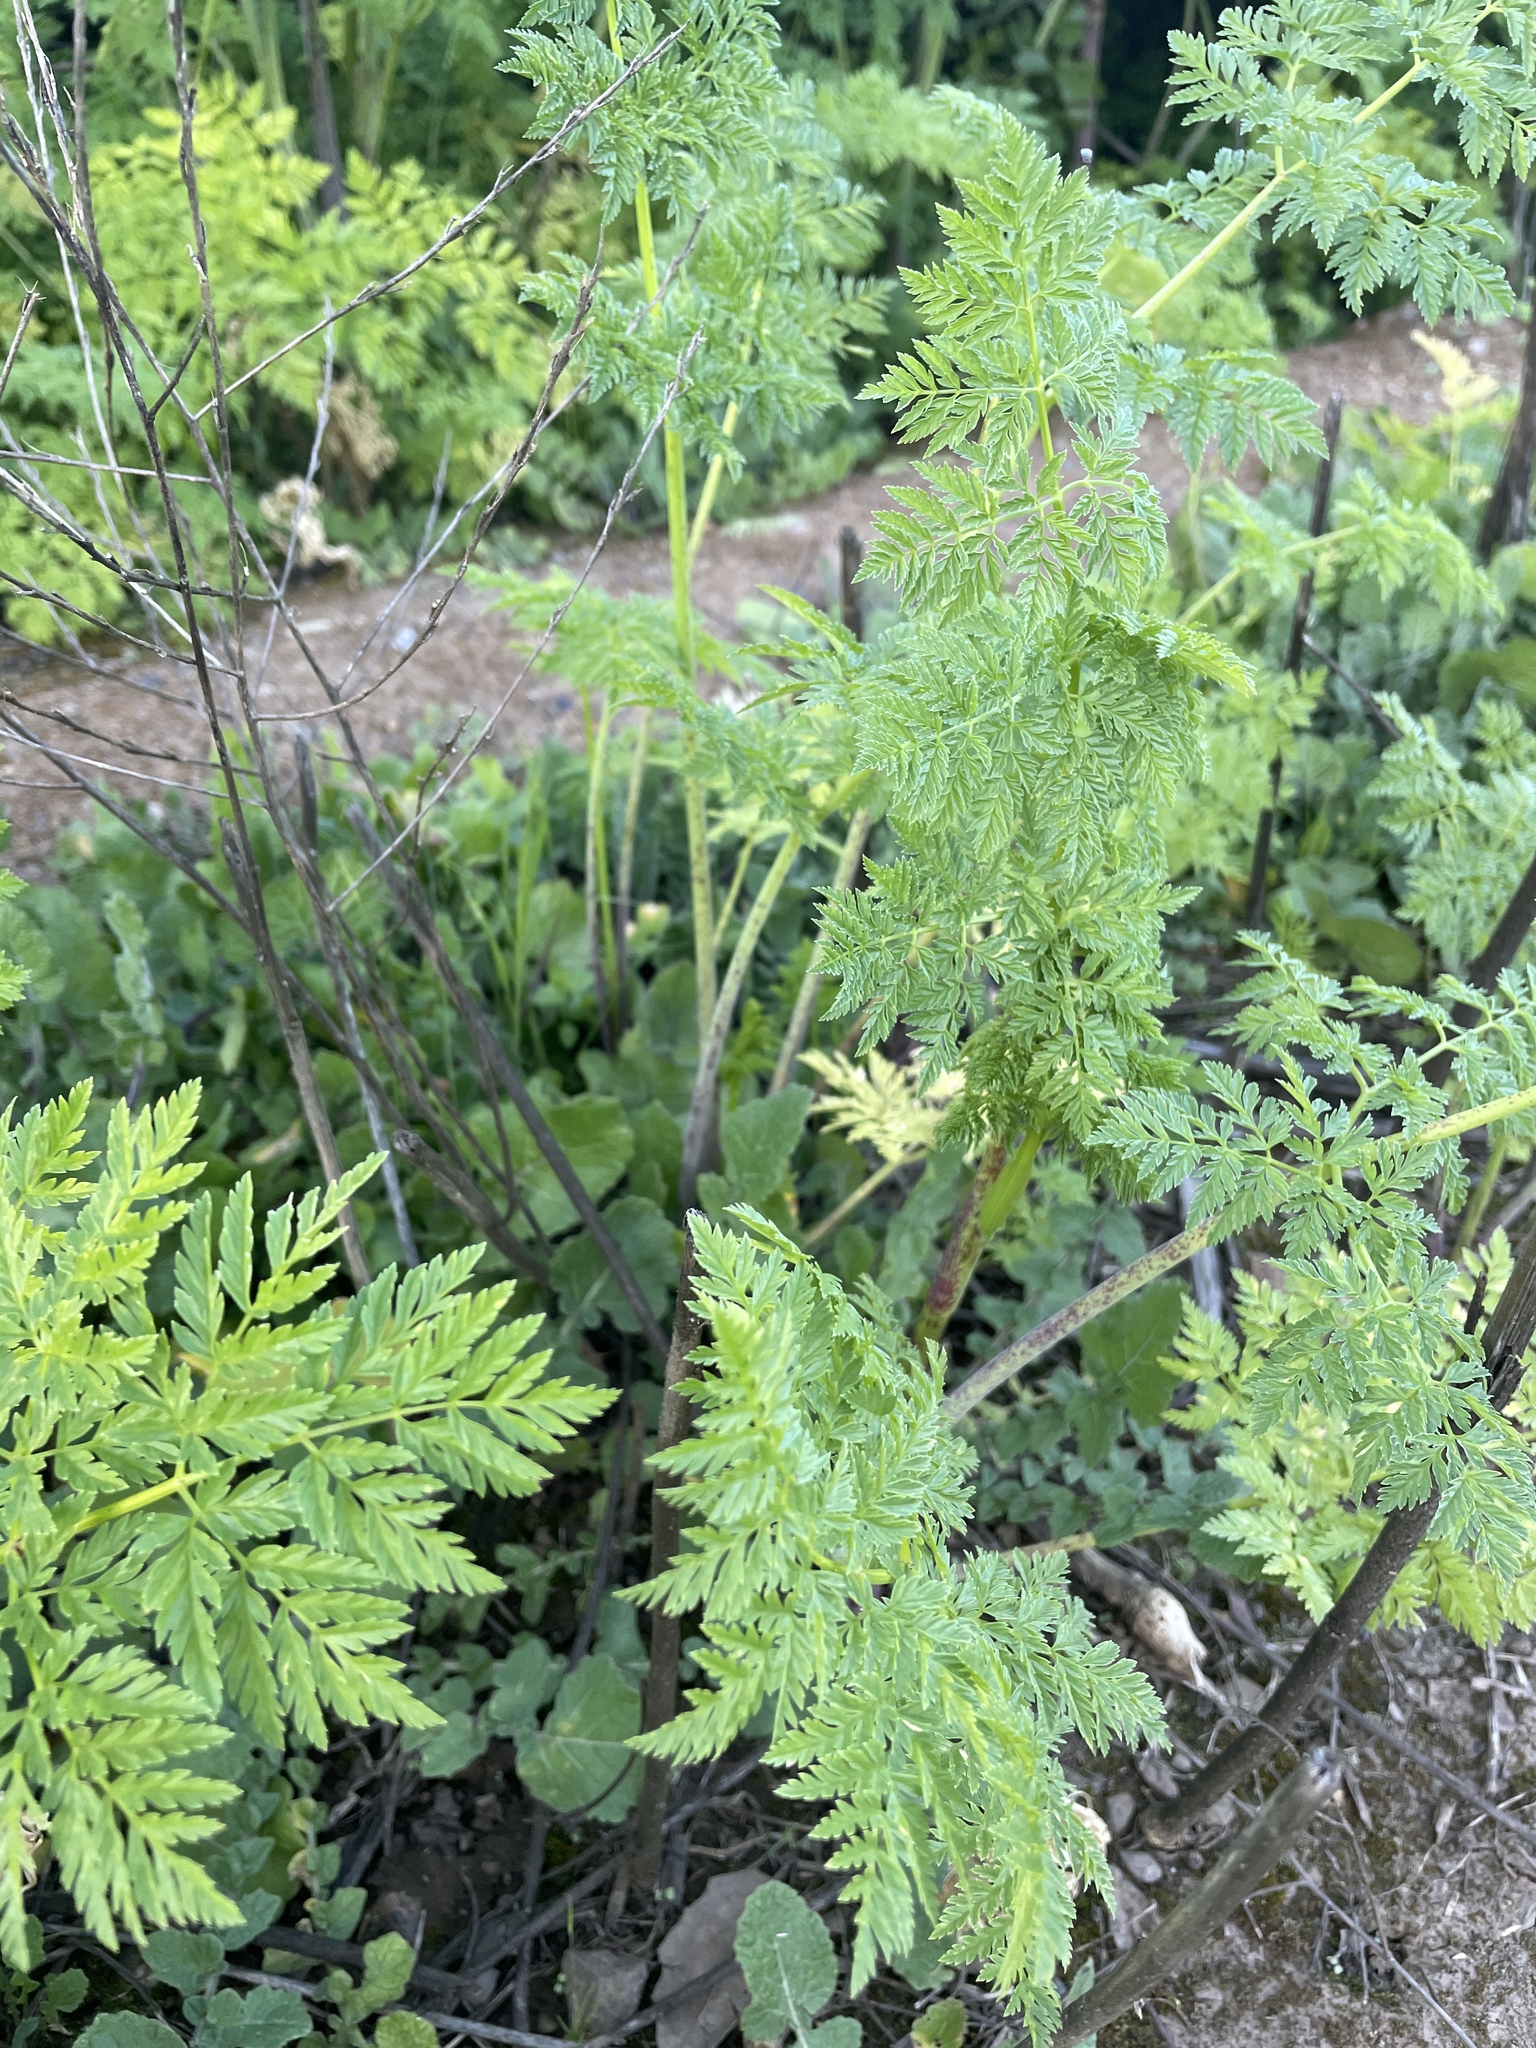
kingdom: Plantae
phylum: Tracheophyta
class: Magnoliopsida
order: Apiales
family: Apiaceae
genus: Conium
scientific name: Conium maculatum
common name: Hemlock
